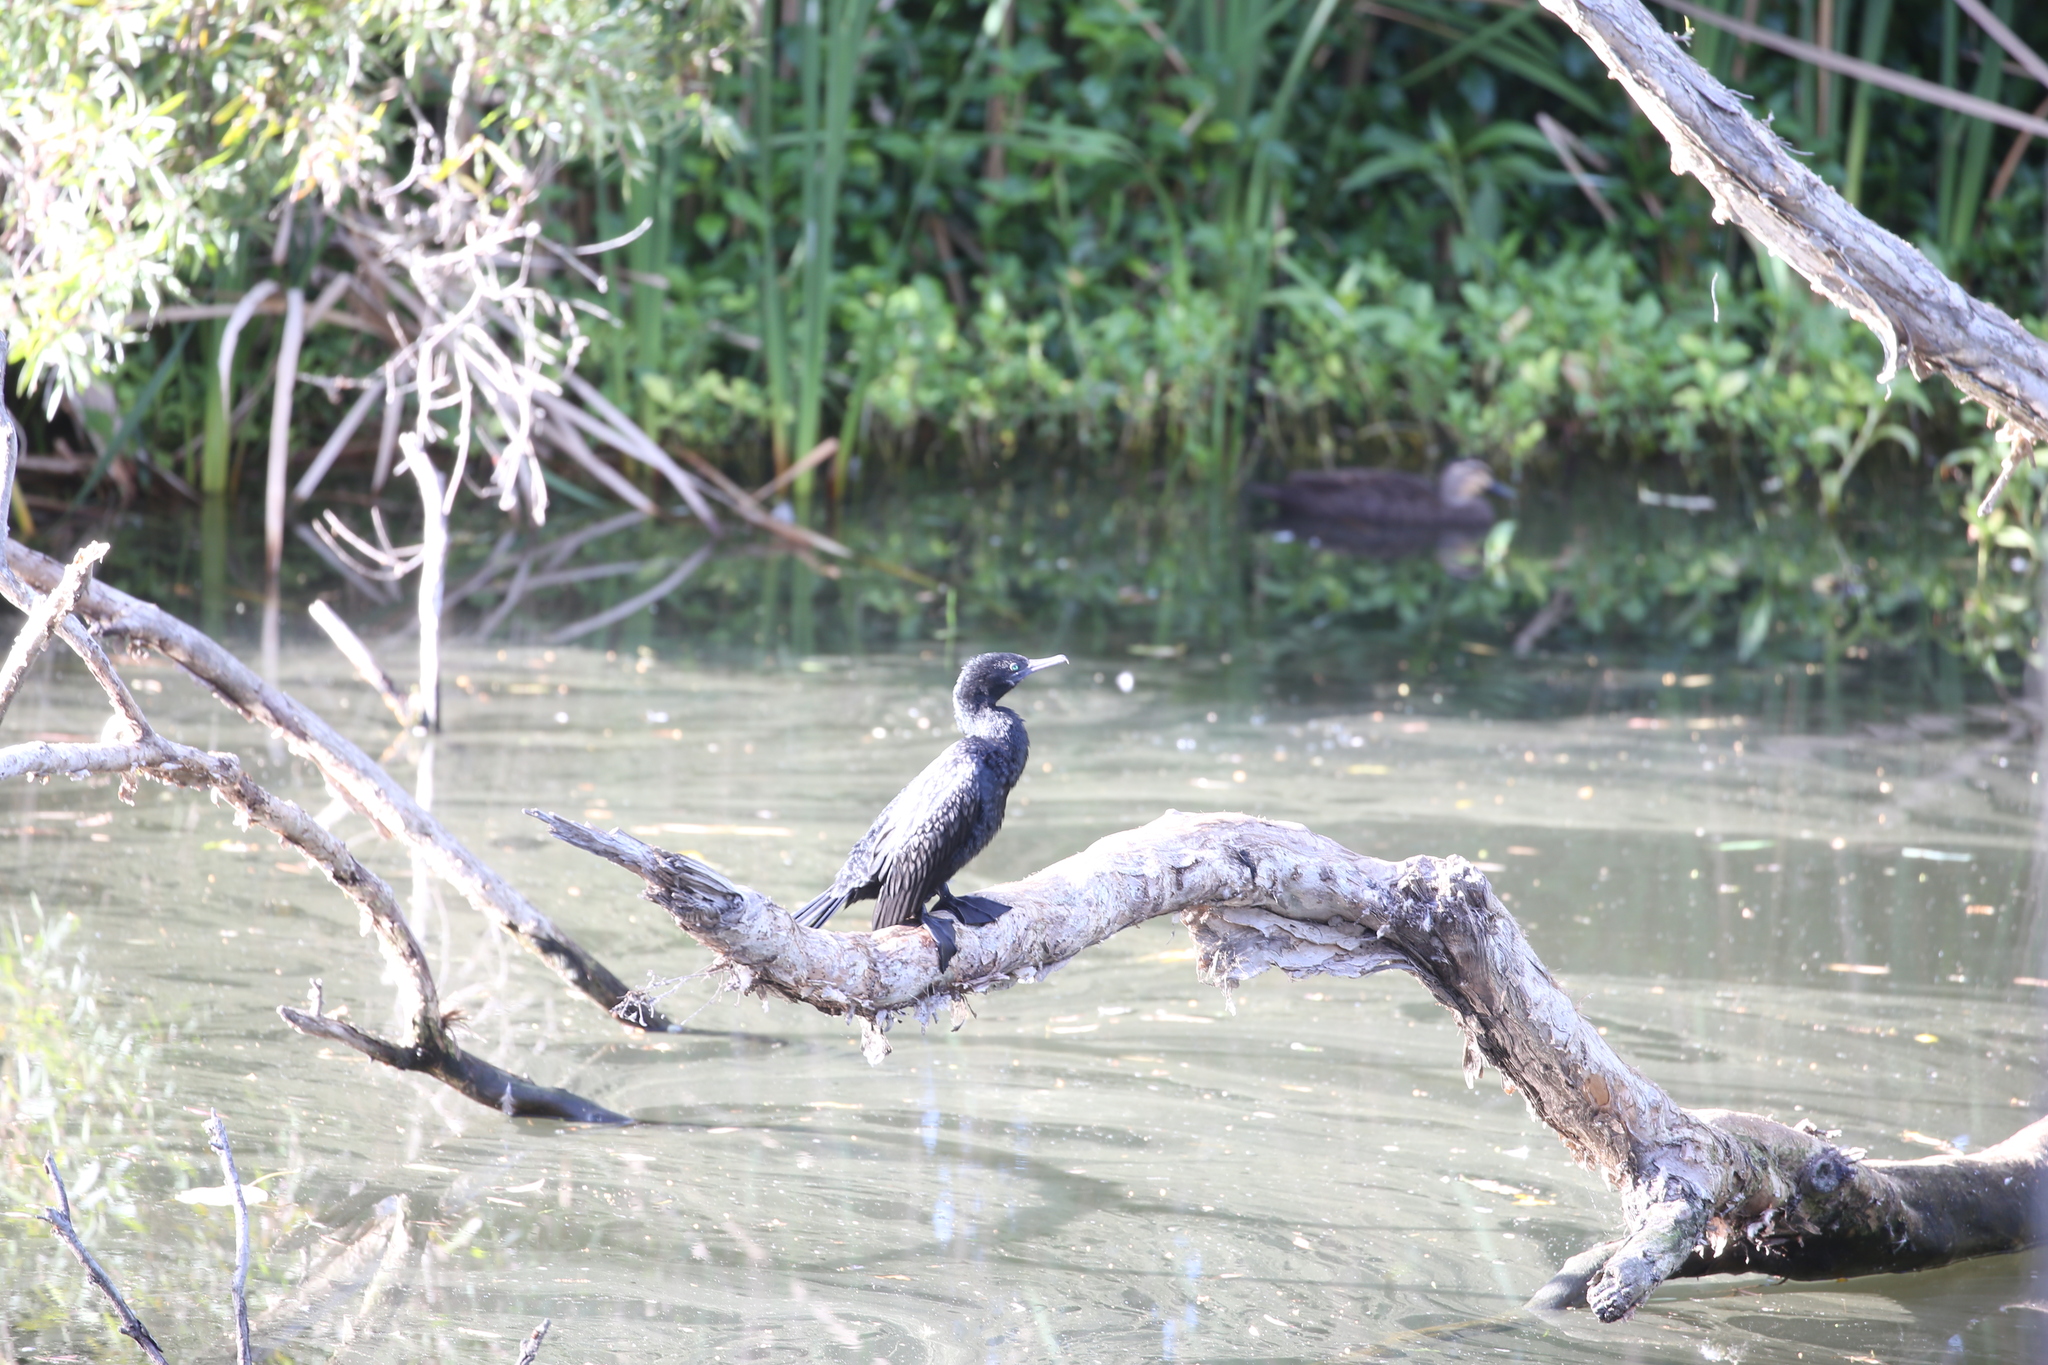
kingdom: Animalia
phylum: Chordata
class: Aves
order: Suliformes
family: Phalacrocoracidae
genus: Phalacrocorax
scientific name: Phalacrocorax sulcirostris
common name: Little black cormorant
